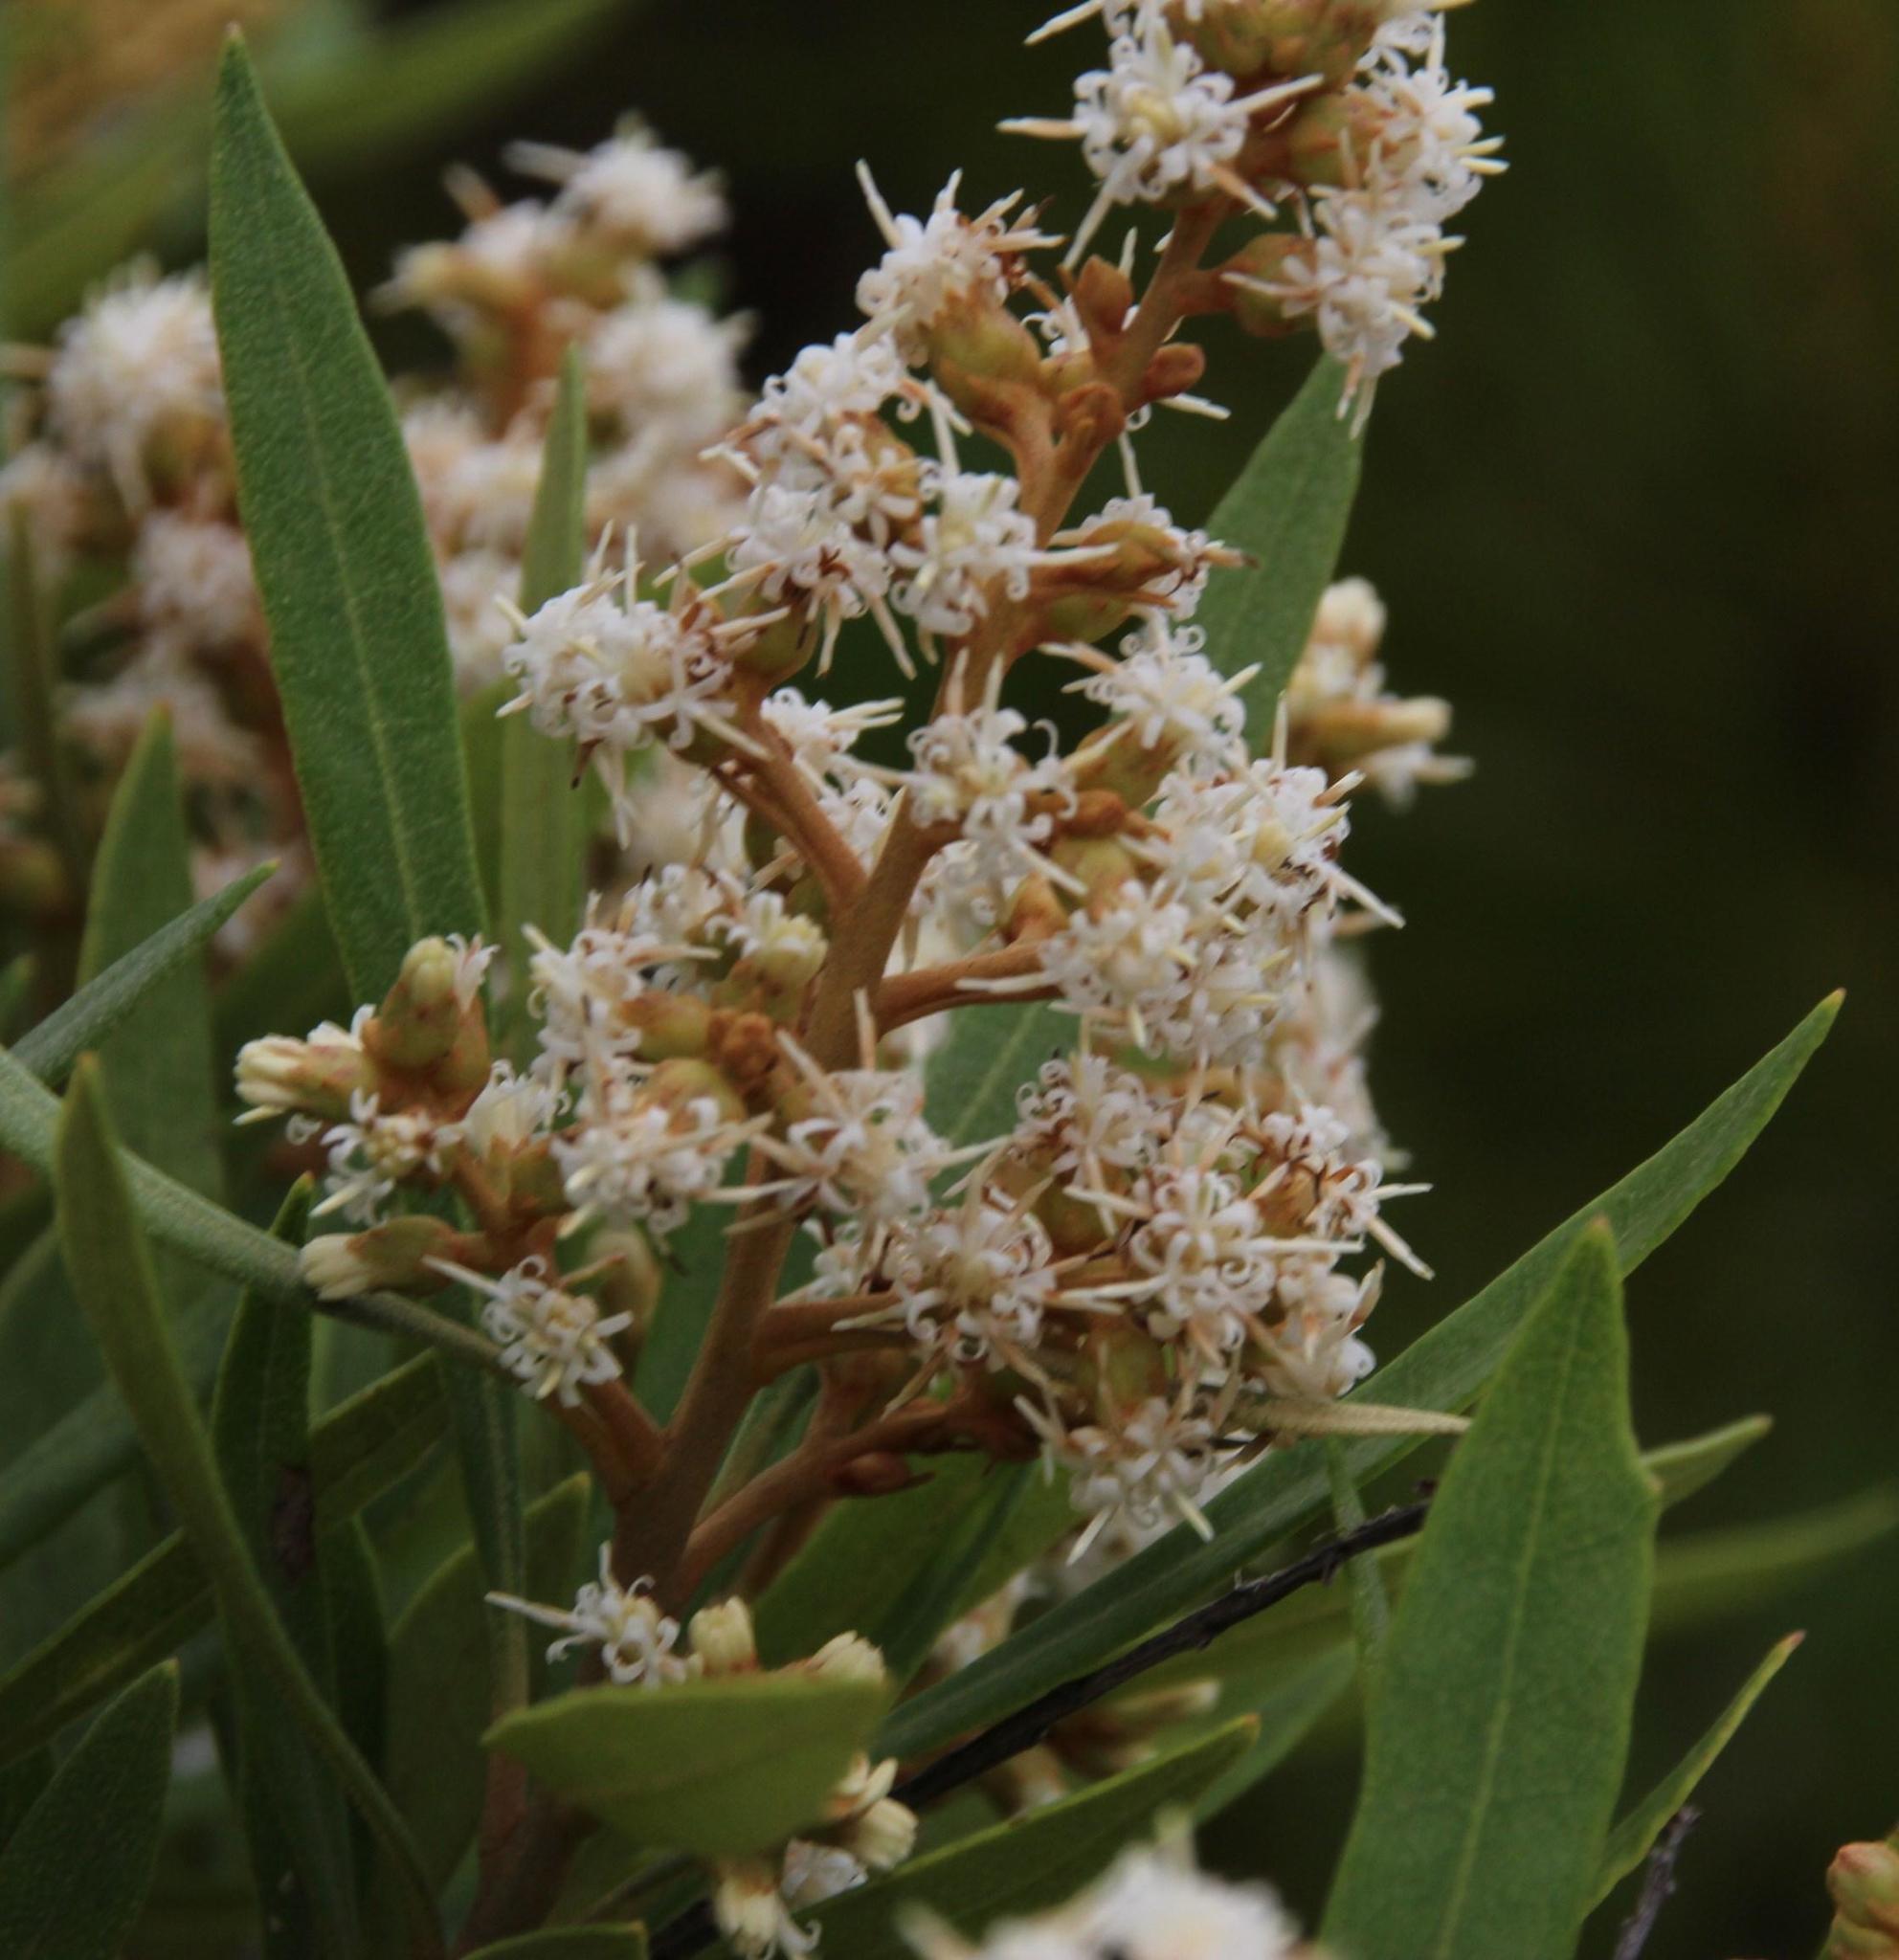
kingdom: Plantae
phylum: Tracheophyta
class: Magnoliopsida
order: Asterales
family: Asteraceae
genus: Brachylaena
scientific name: Brachylaena neriifolia
